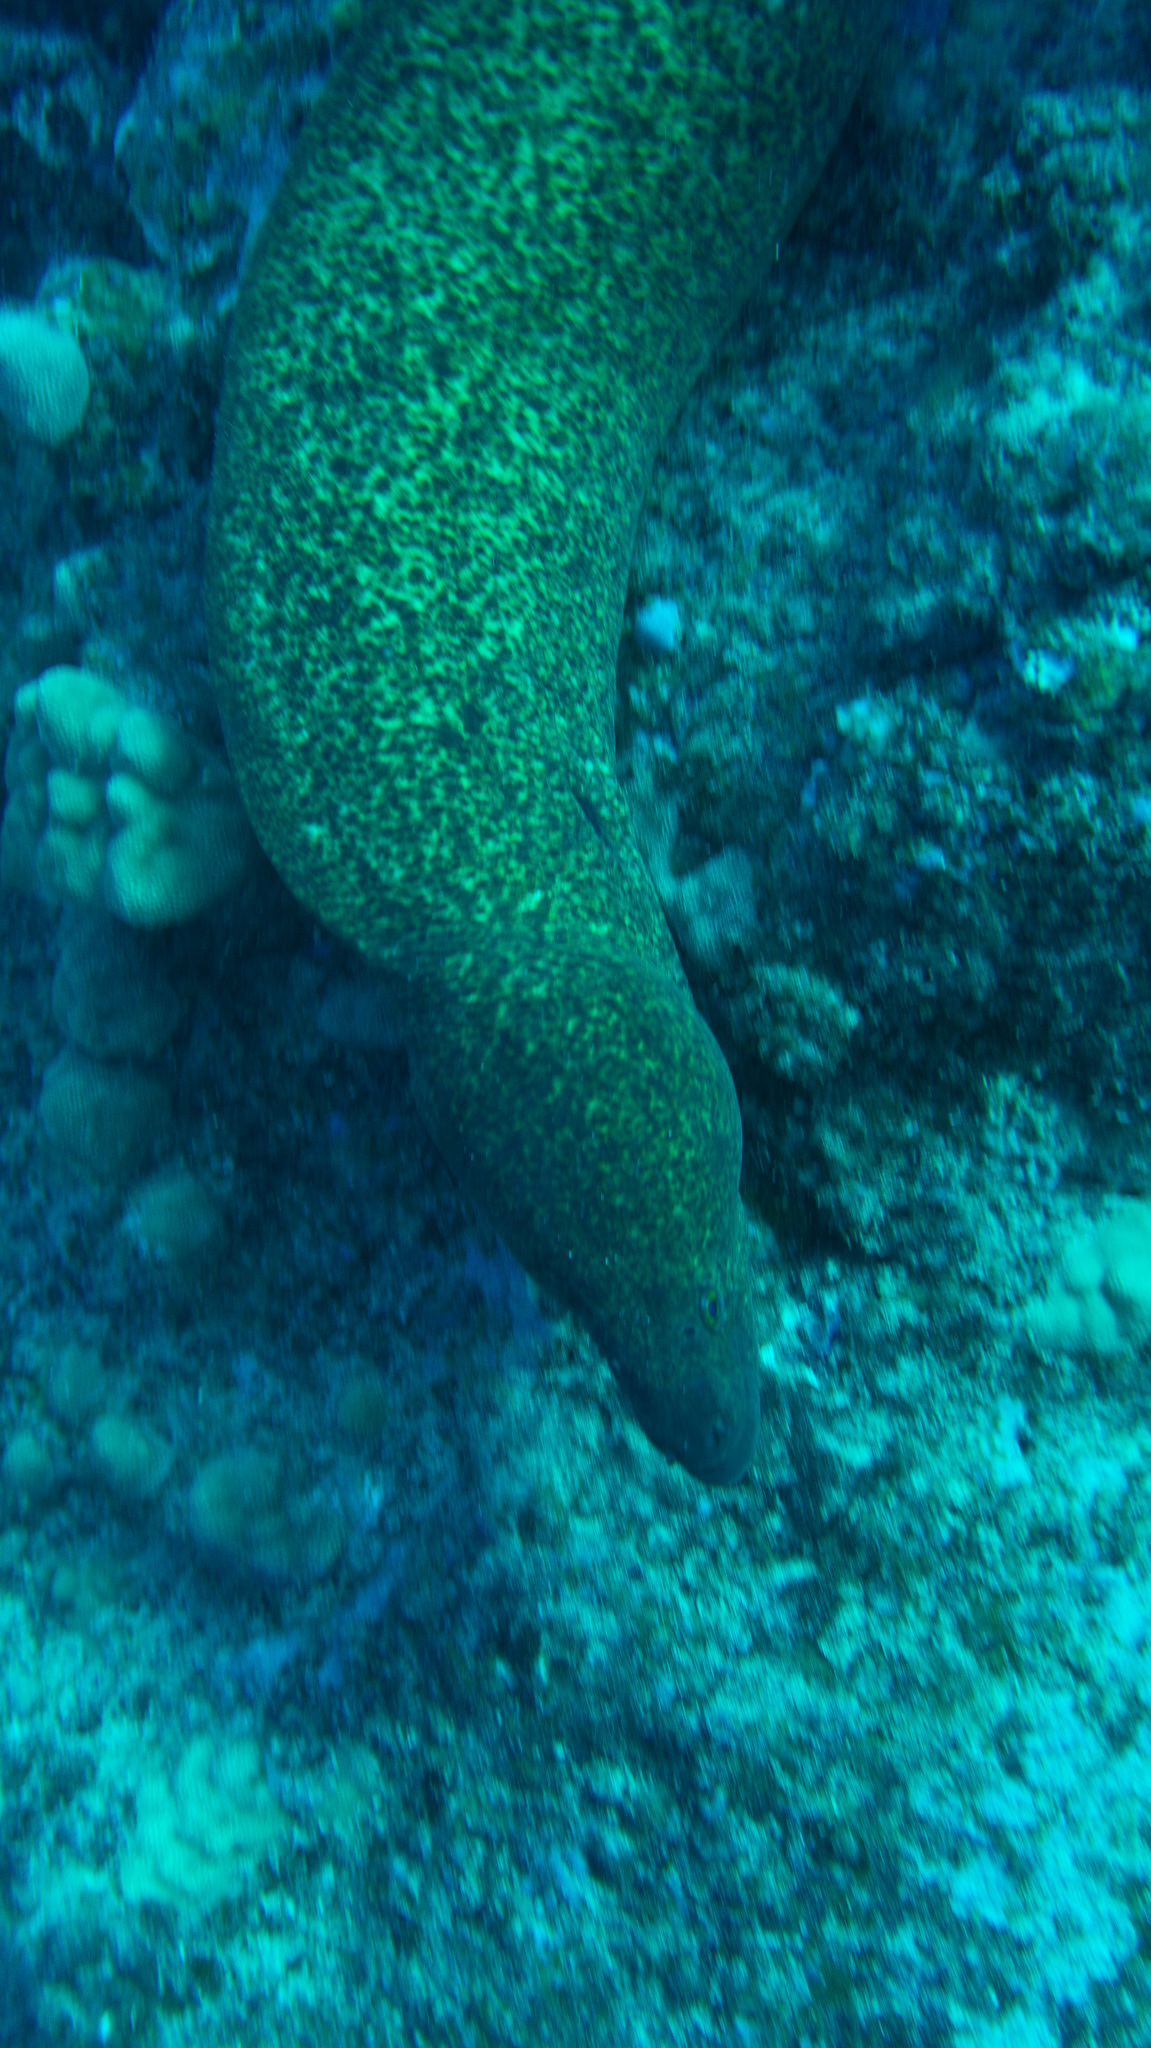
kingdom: Animalia
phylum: Chordata
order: Anguilliformes
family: Muraenidae
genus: Gymnothorax
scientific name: Gymnothorax flavimarginatus
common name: Yellow-edged moray
